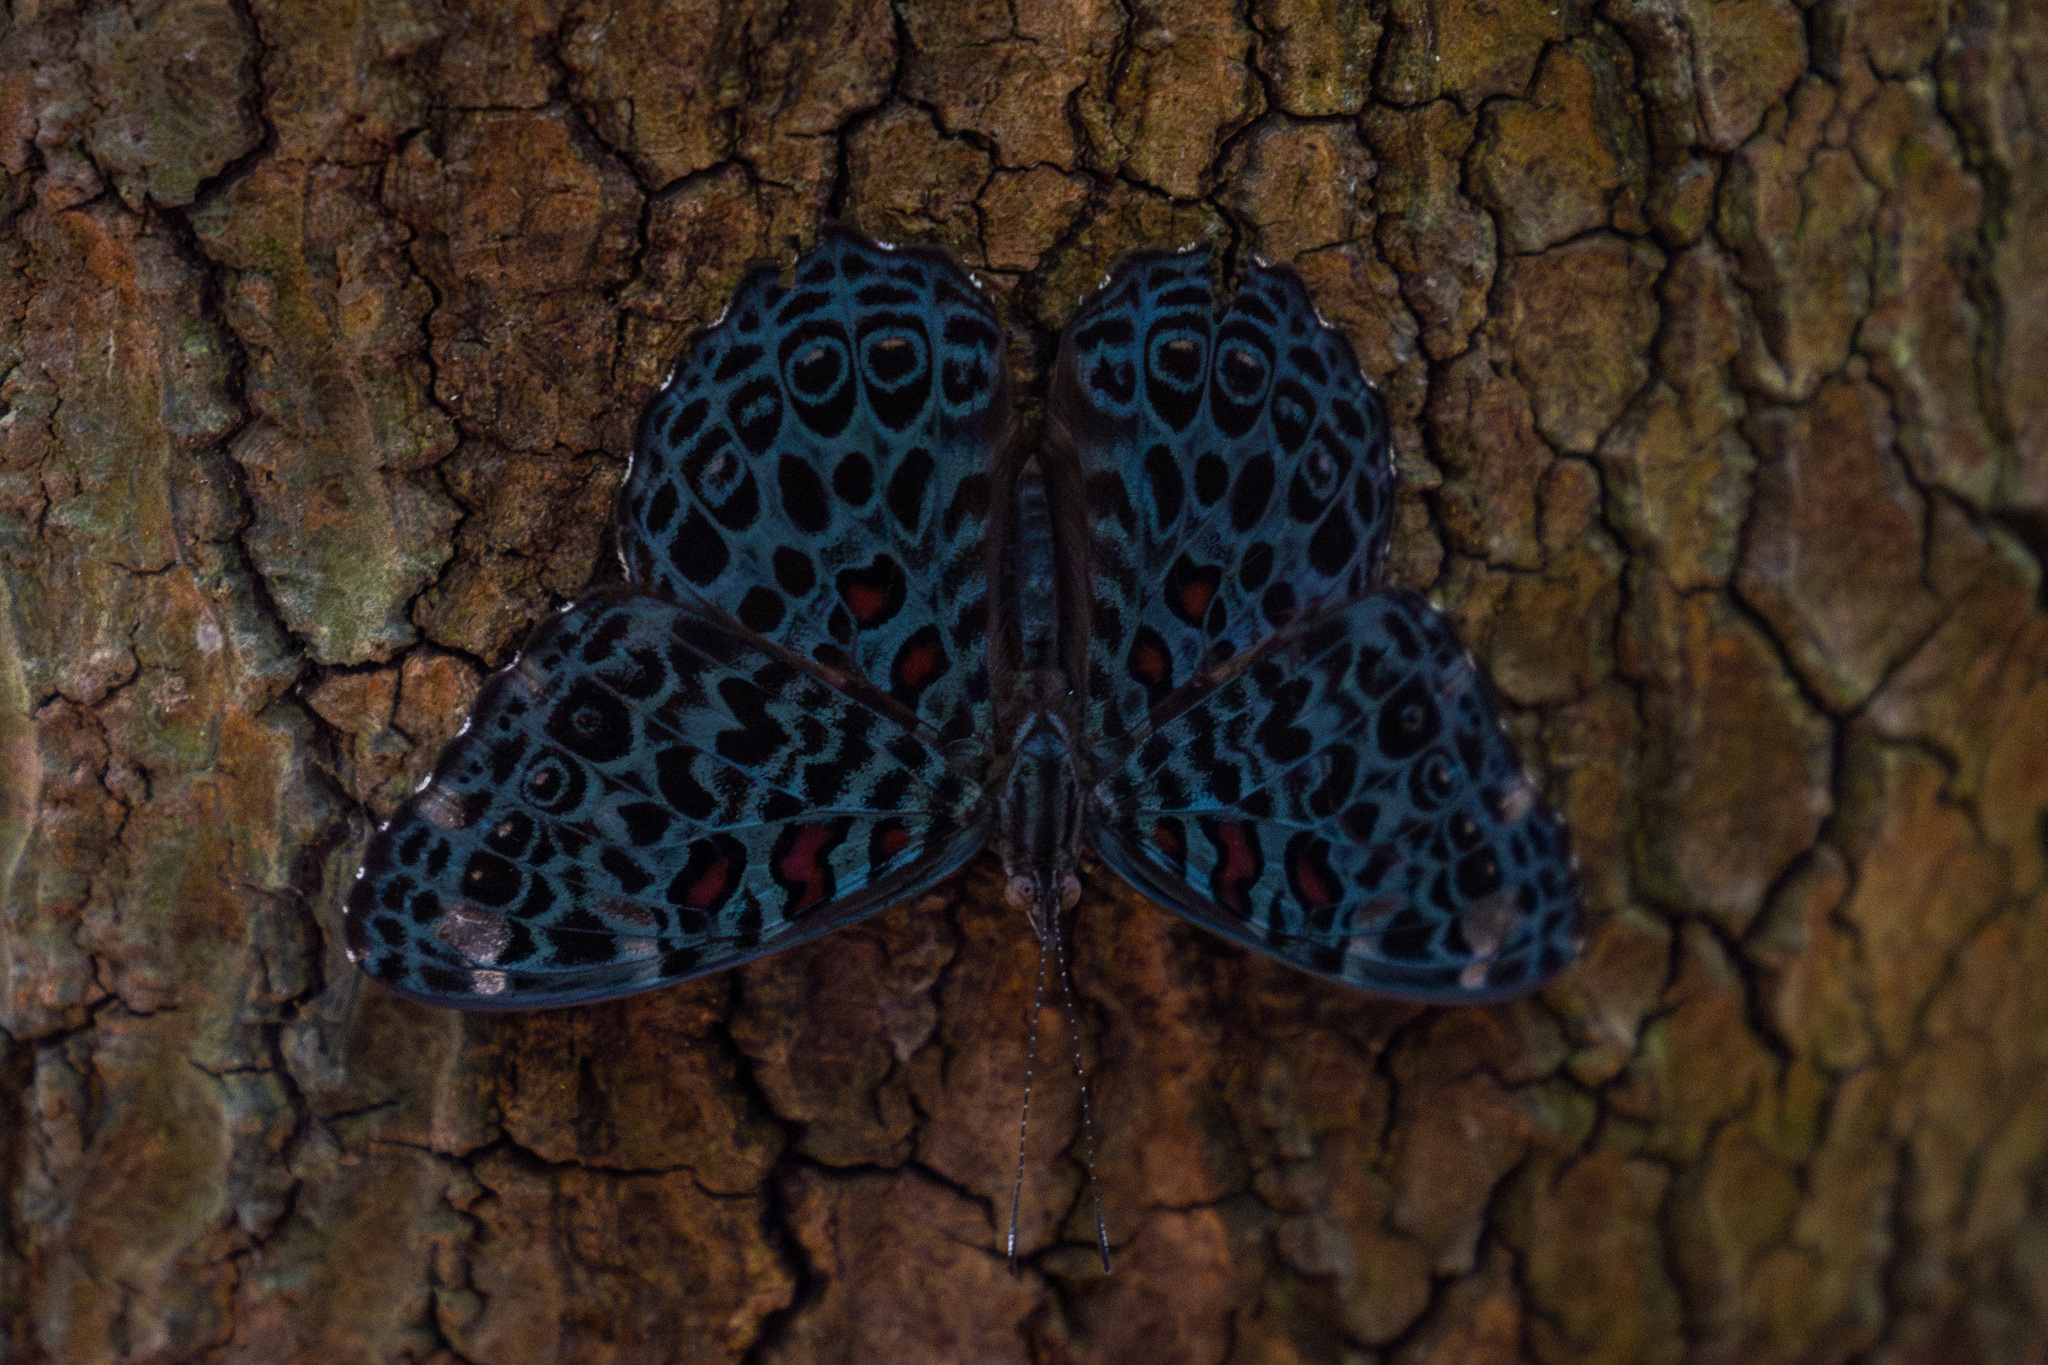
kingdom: Animalia
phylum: Arthropoda
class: Insecta
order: Lepidoptera
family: Nymphalidae
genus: Hamadryas
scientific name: Hamadryas chloe
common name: Amazon cracker
